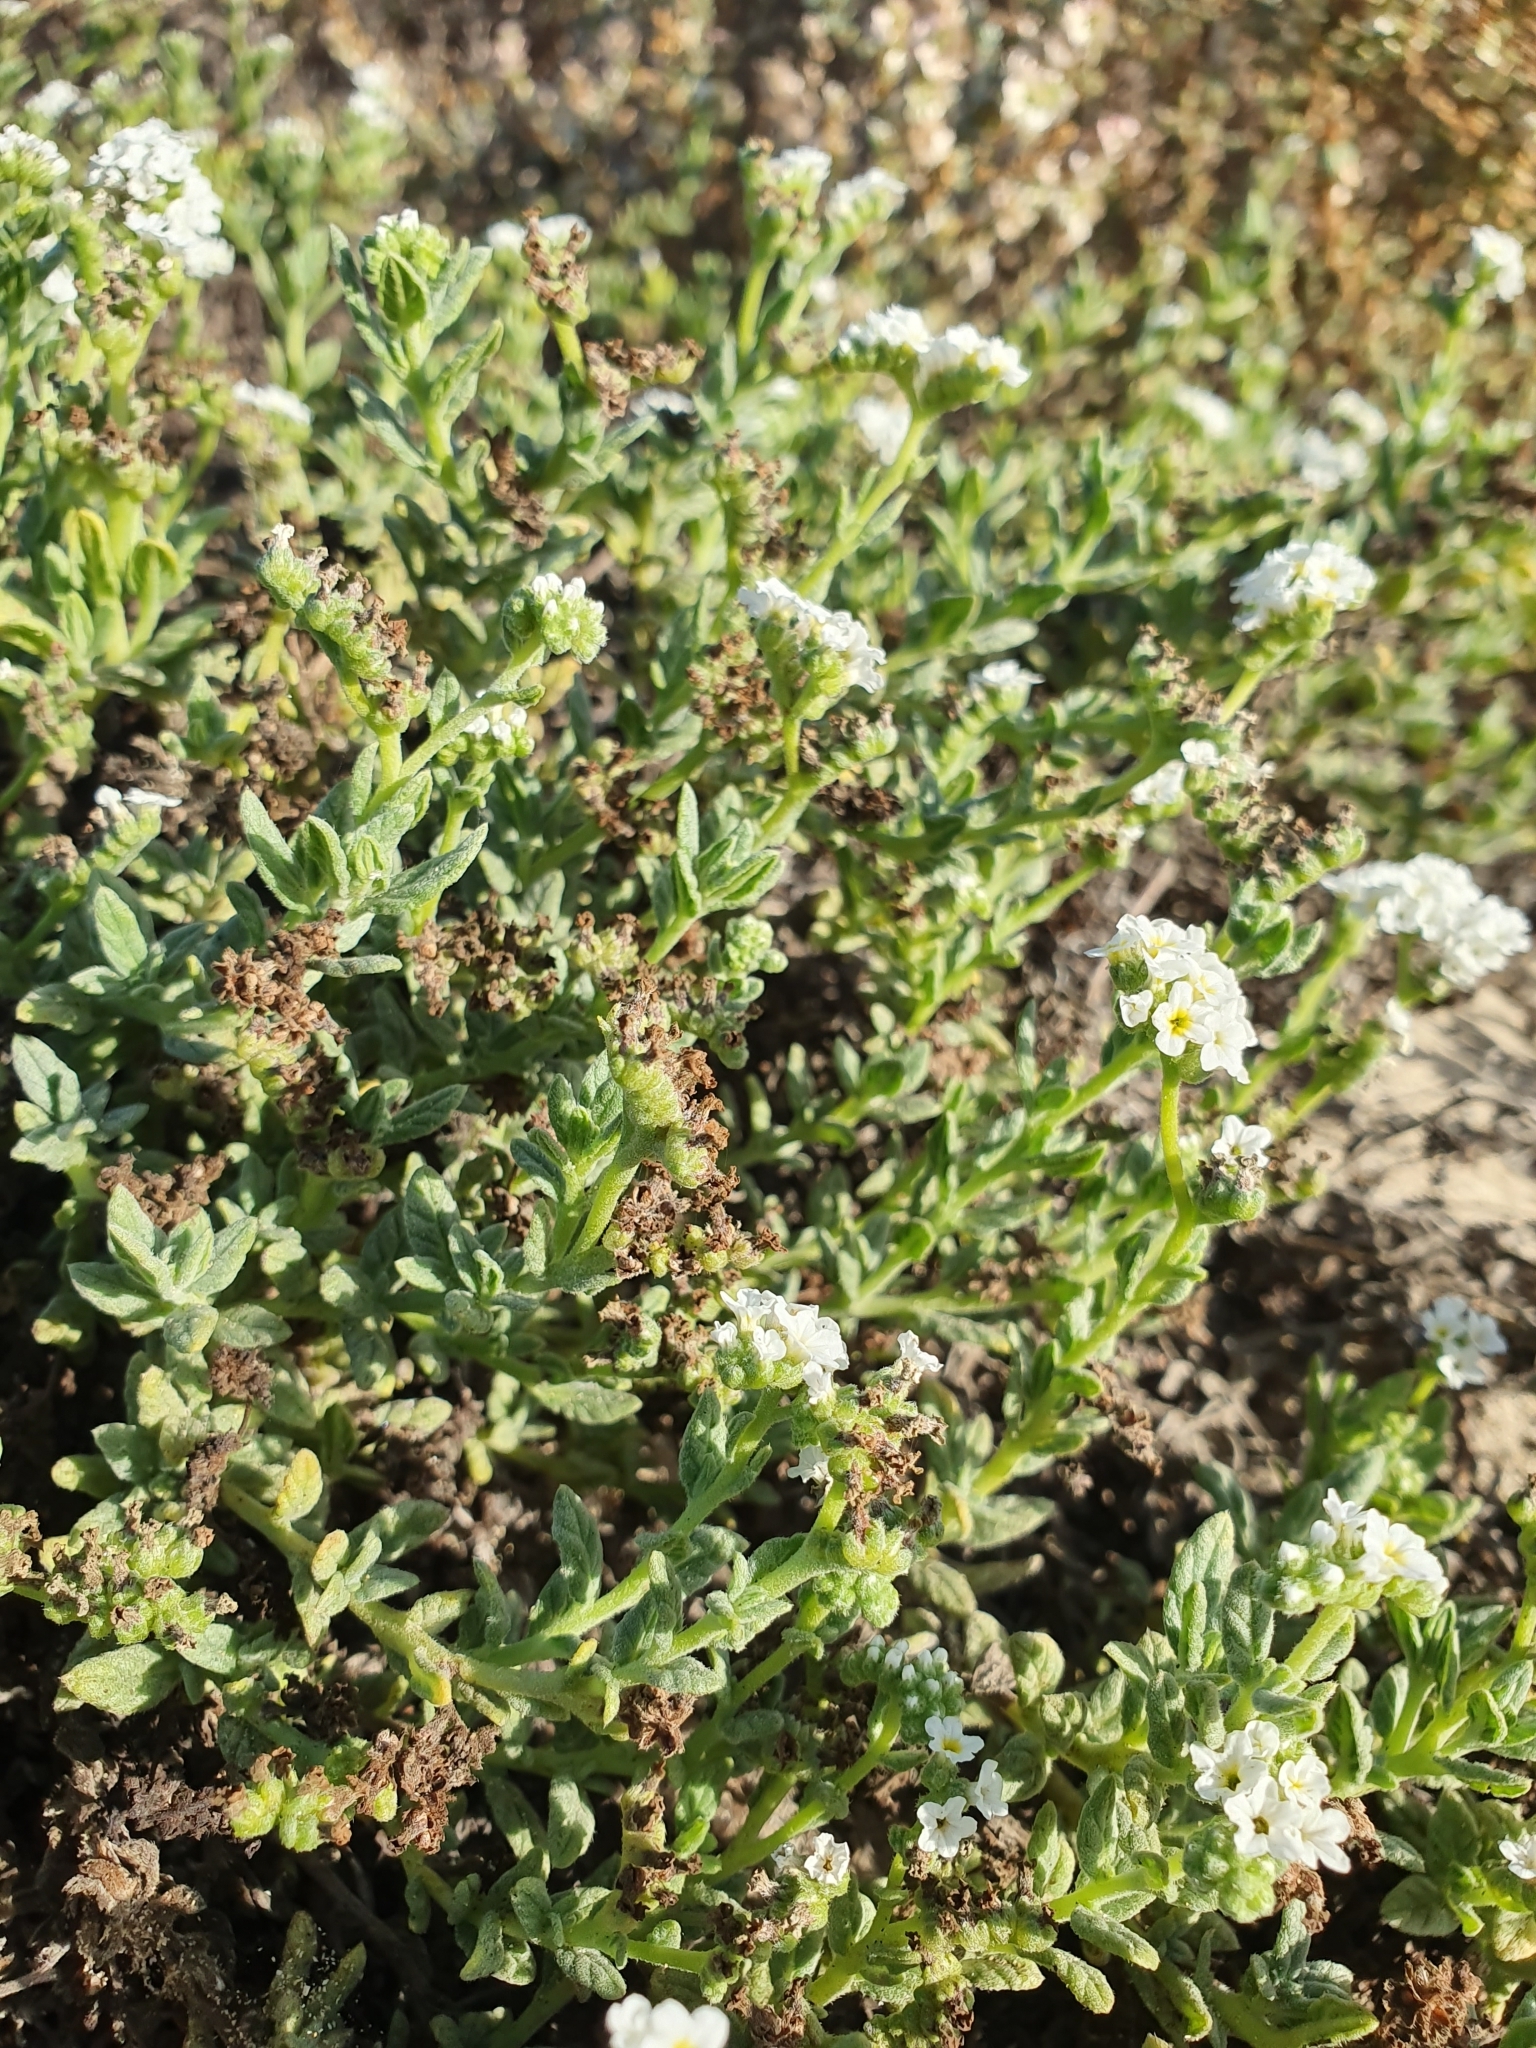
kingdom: Plantae
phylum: Tracheophyta
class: Magnoliopsida
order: Boraginales
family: Heliotropiaceae
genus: Heliotropium
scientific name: Heliotropium ramosissimum
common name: Wavy heliotrope
